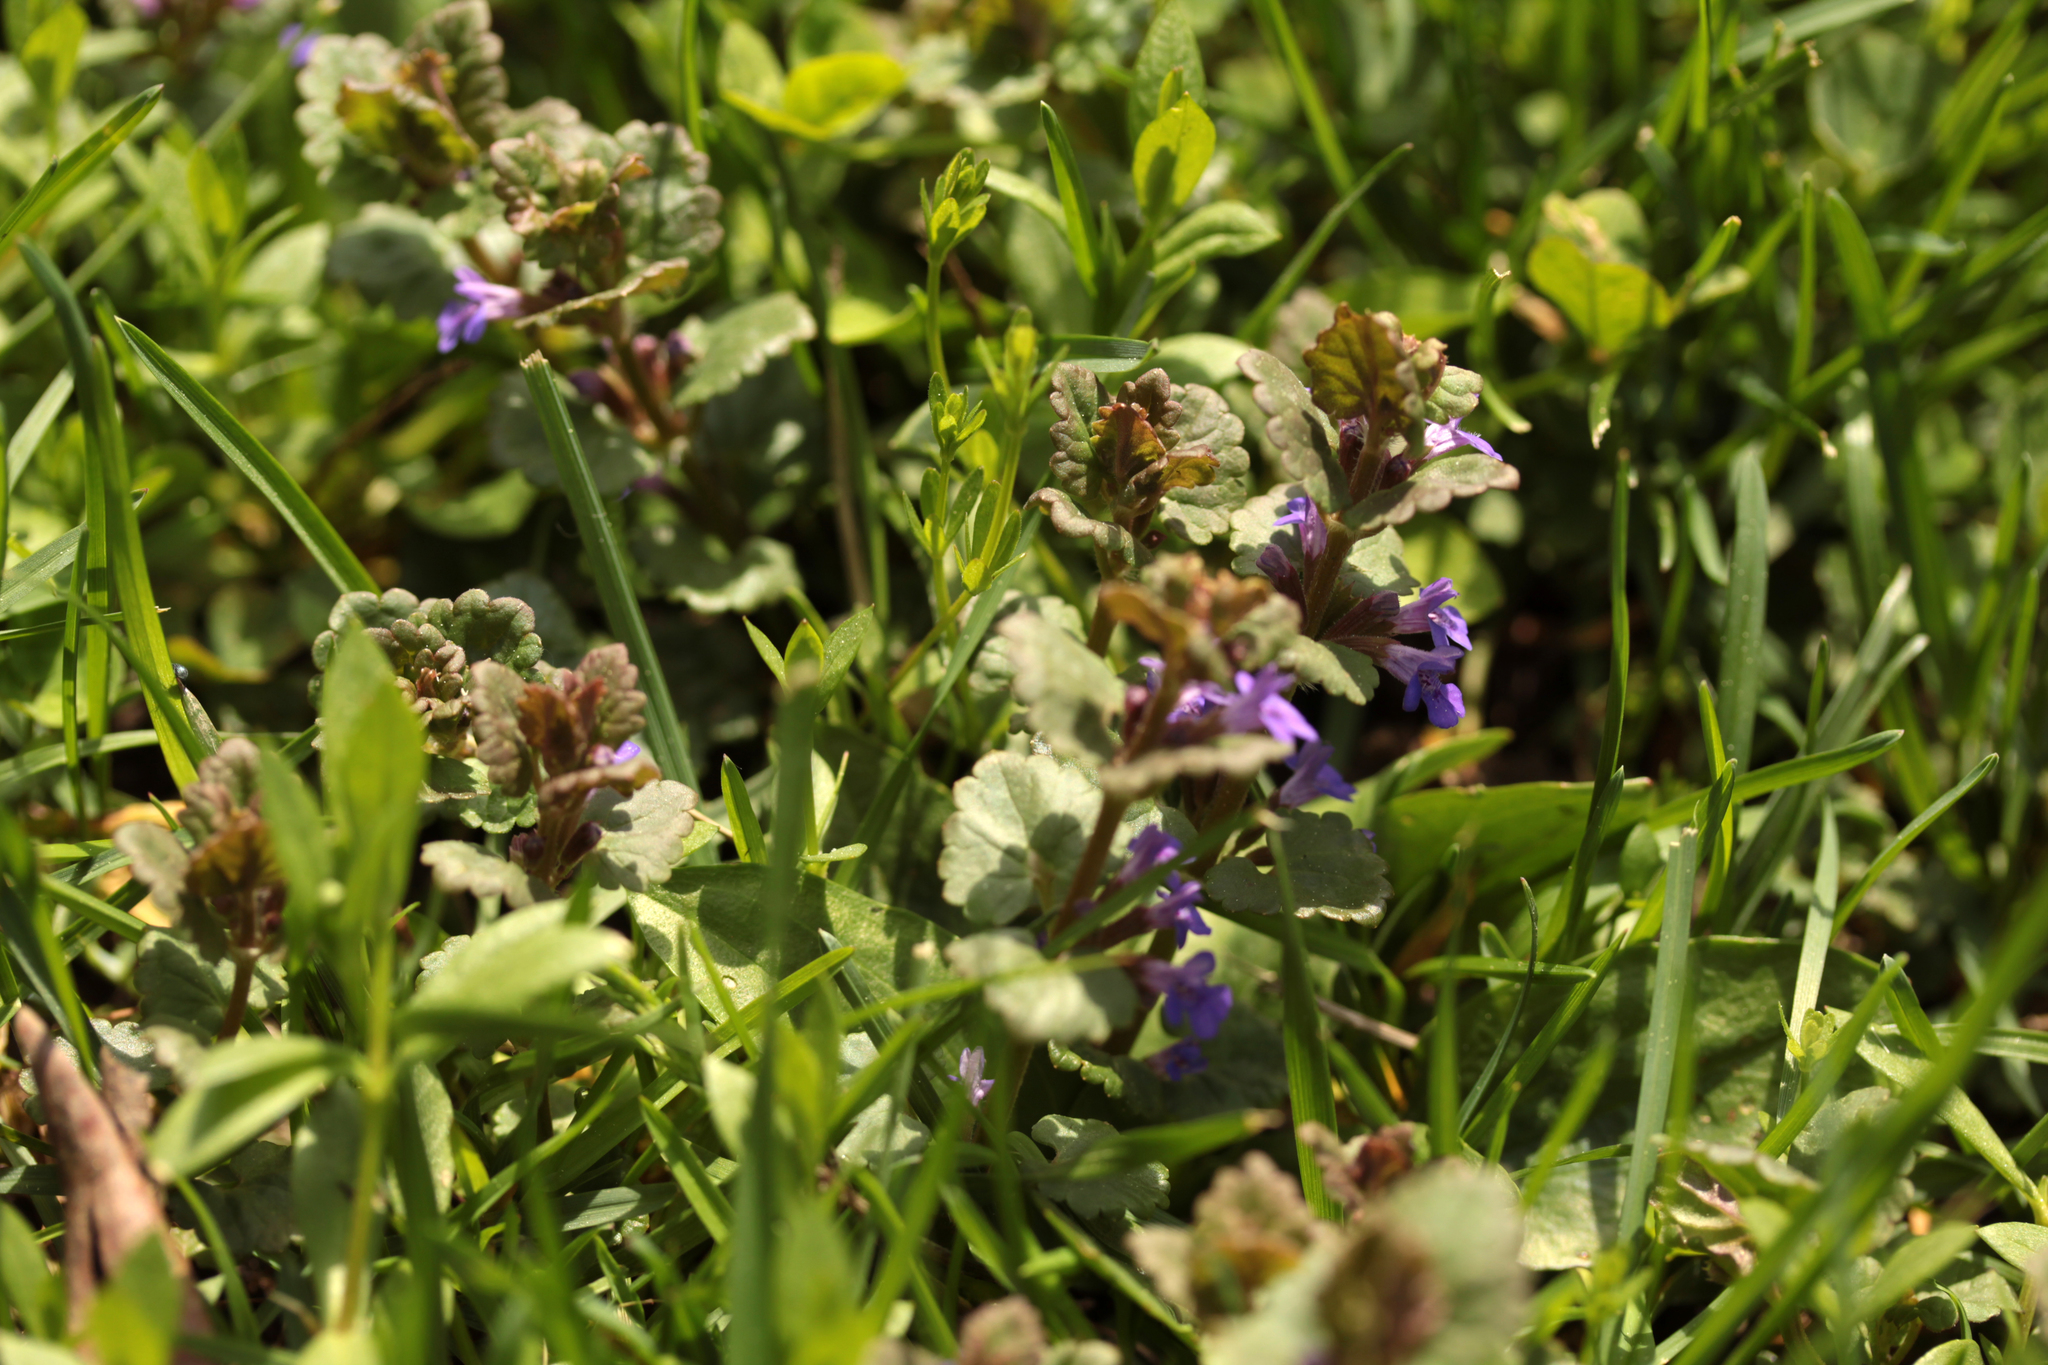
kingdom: Plantae
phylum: Tracheophyta
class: Magnoliopsida
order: Lamiales
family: Lamiaceae
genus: Glechoma
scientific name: Glechoma hederacea
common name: Ground ivy
